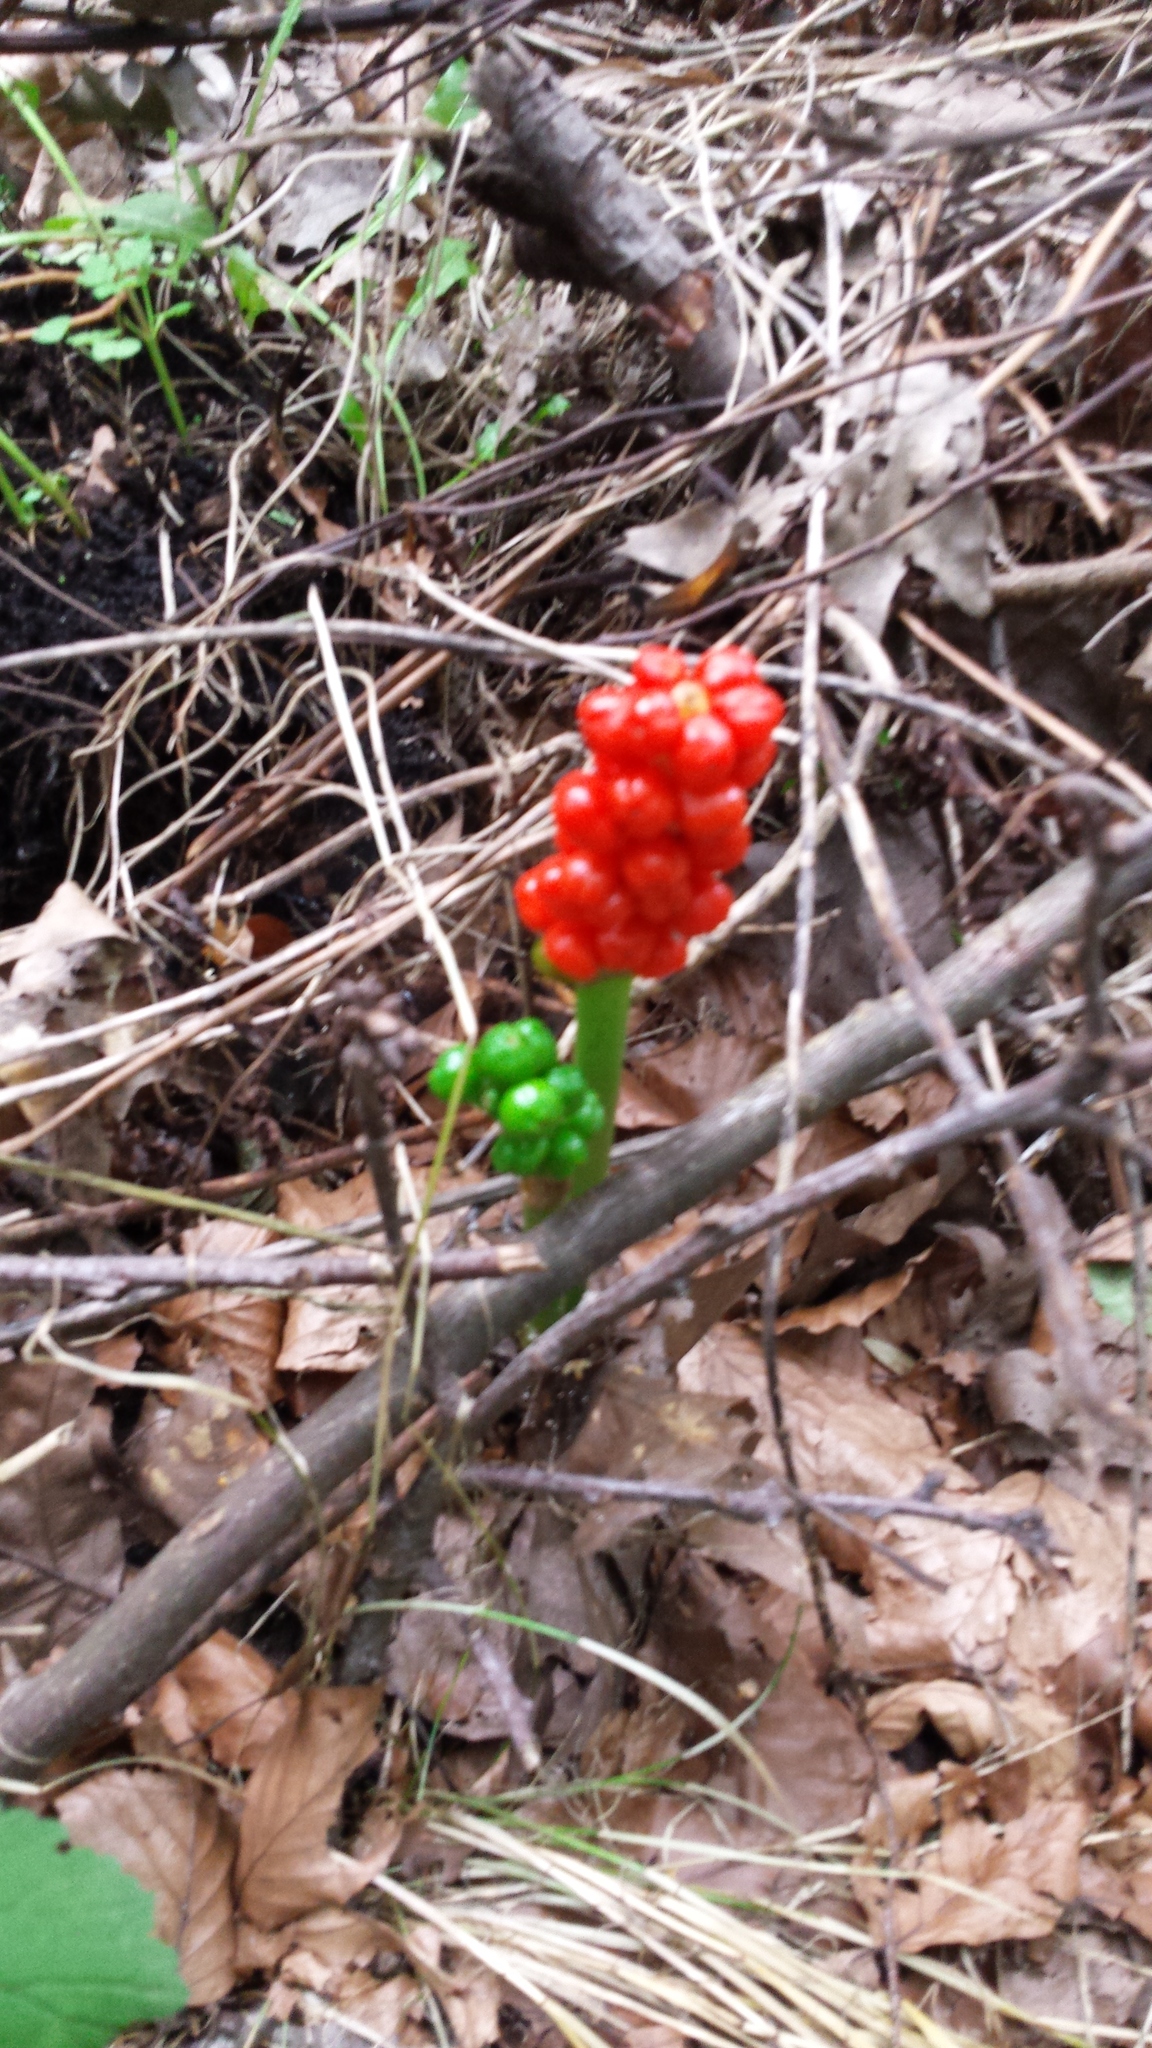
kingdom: Plantae
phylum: Tracheophyta
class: Liliopsida
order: Alismatales
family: Araceae
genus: Arum
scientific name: Arum maculatum
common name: Lords-and-ladies
